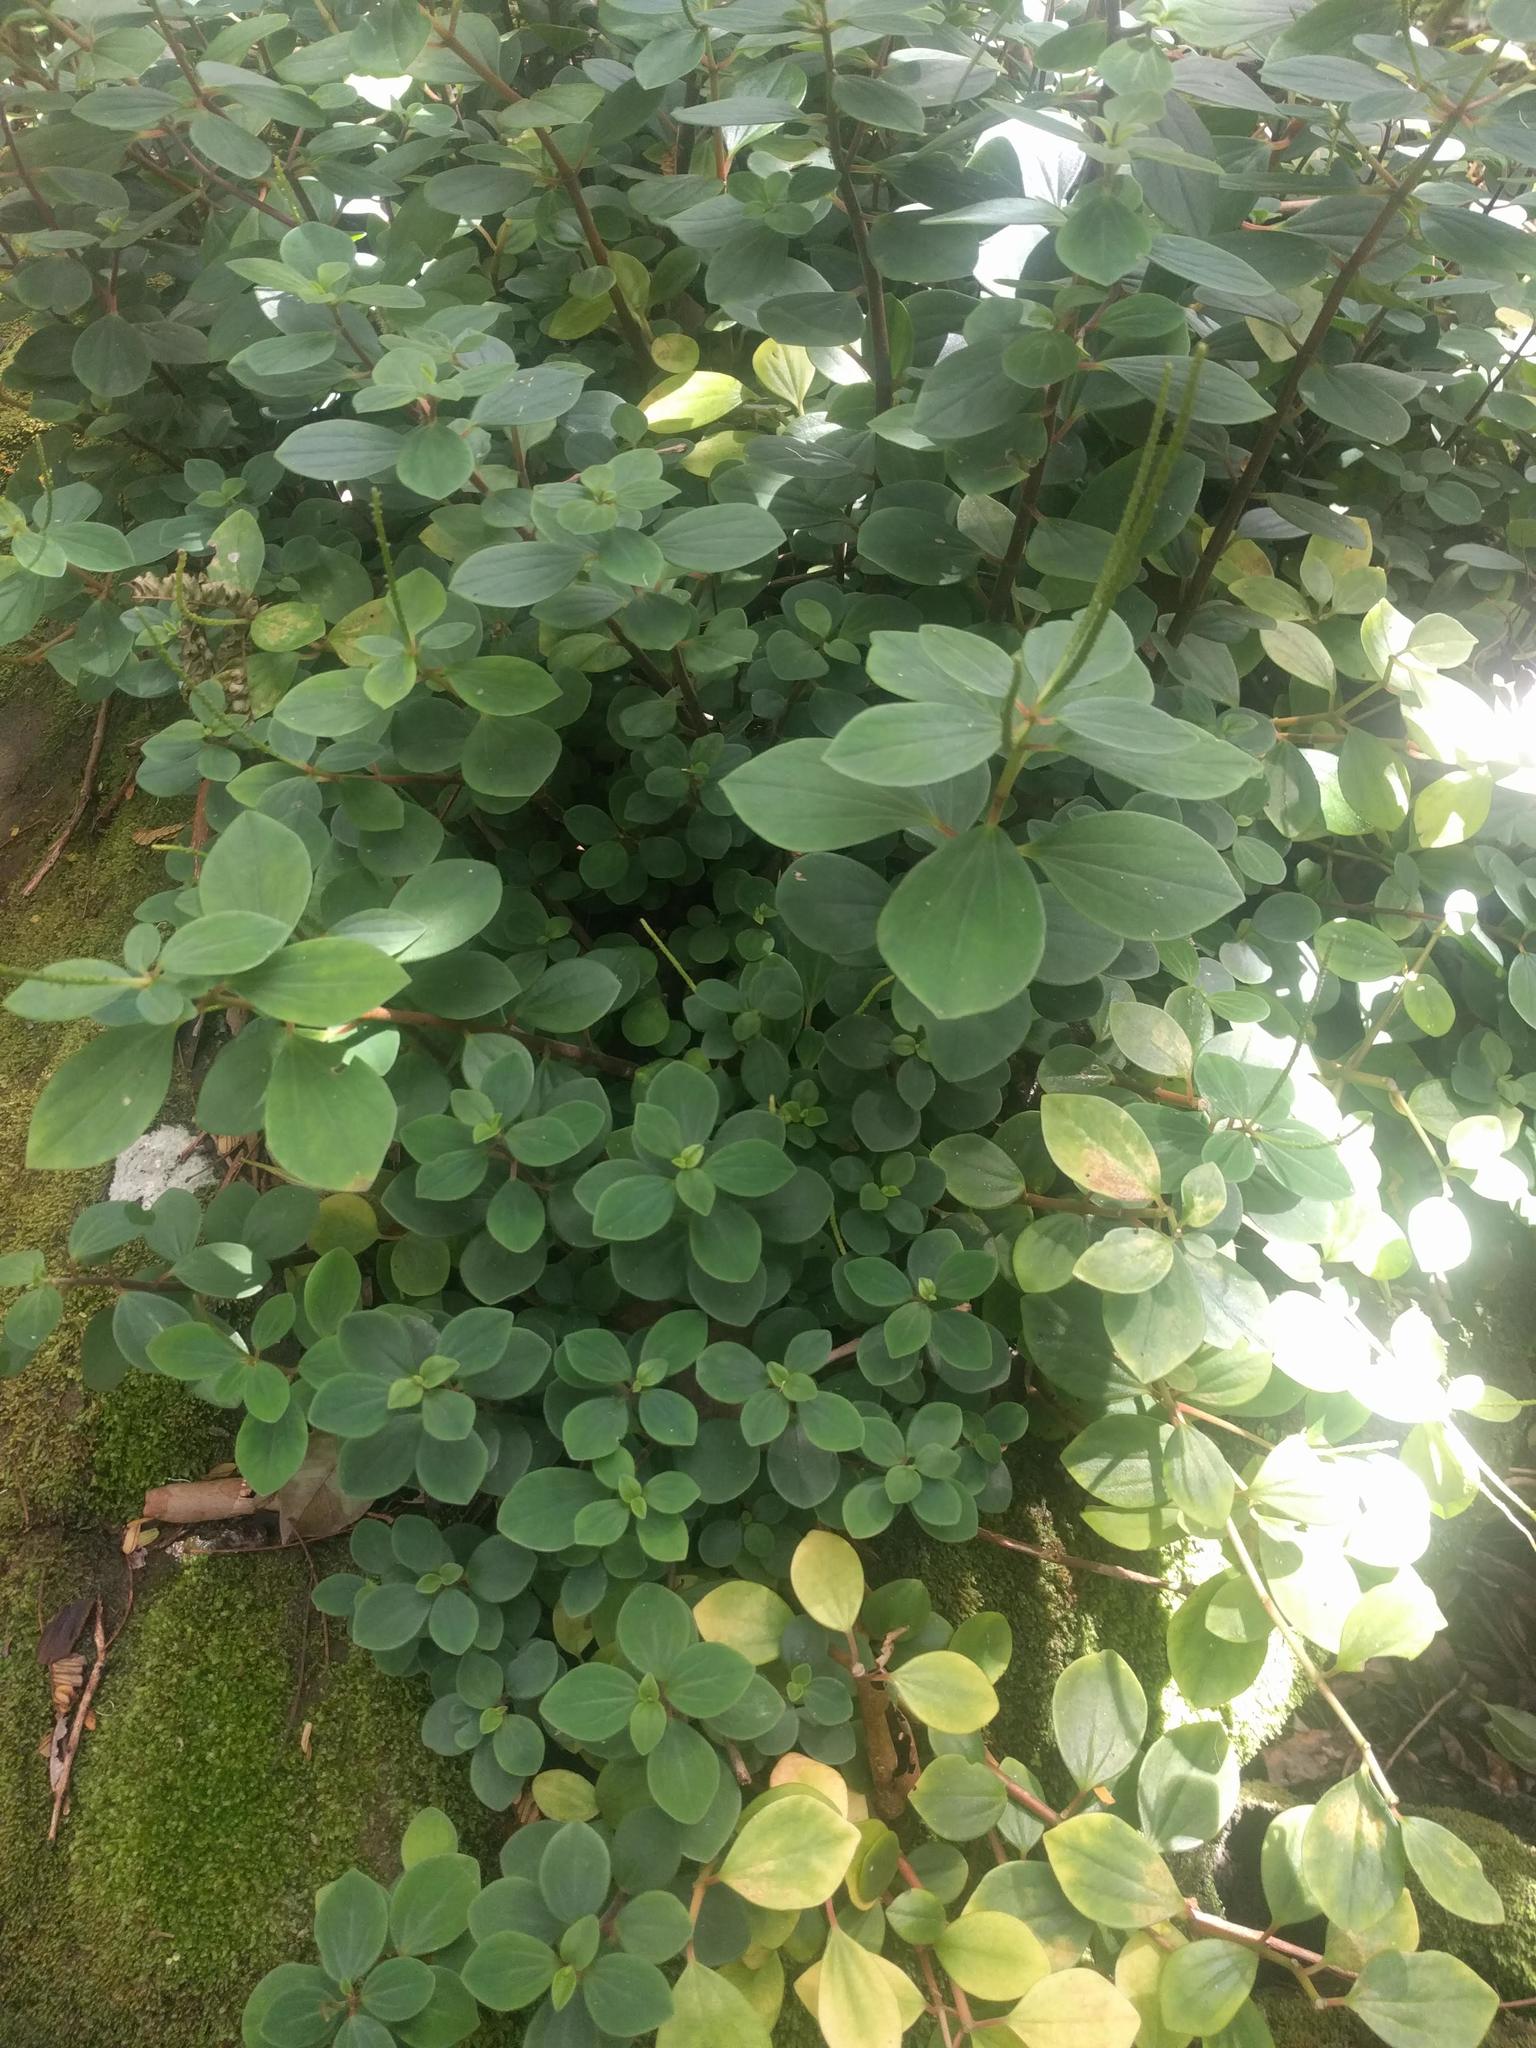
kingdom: Plantae
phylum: Tracheophyta
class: Magnoliopsida
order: Piperales
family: Piperaceae
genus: Peperomia
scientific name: Peperomia leptostachya
